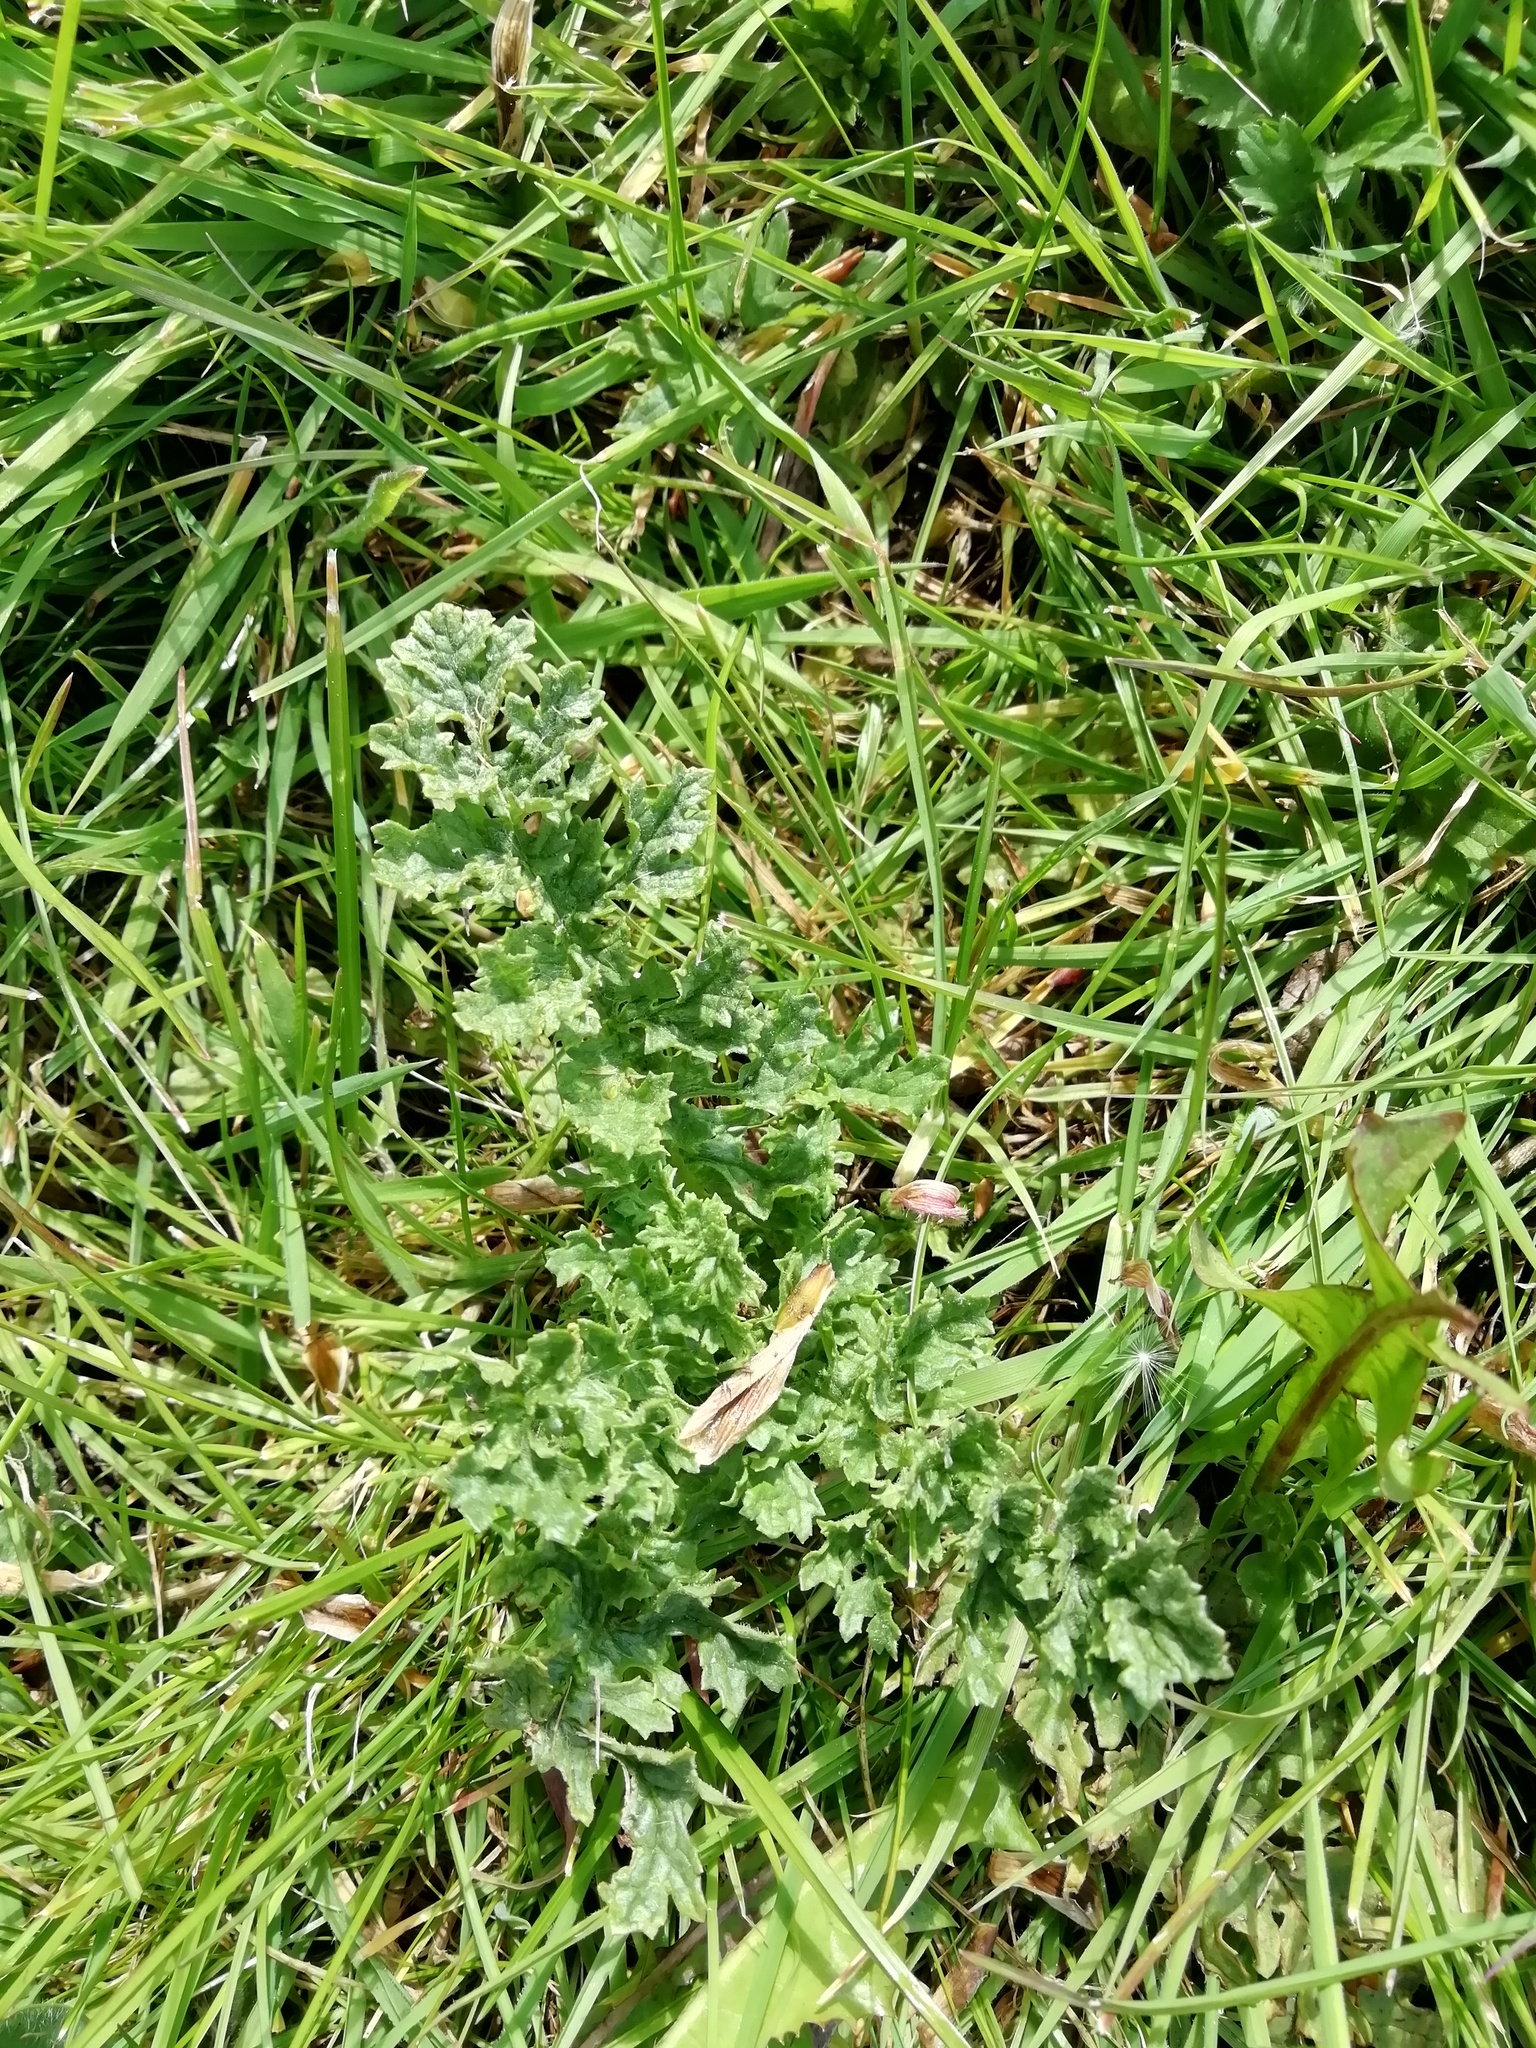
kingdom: Plantae
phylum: Tracheophyta
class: Magnoliopsida
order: Asterales
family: Asteraceae
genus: Jacobaea
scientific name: Jacobaea vulgaris
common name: Stinking willie
